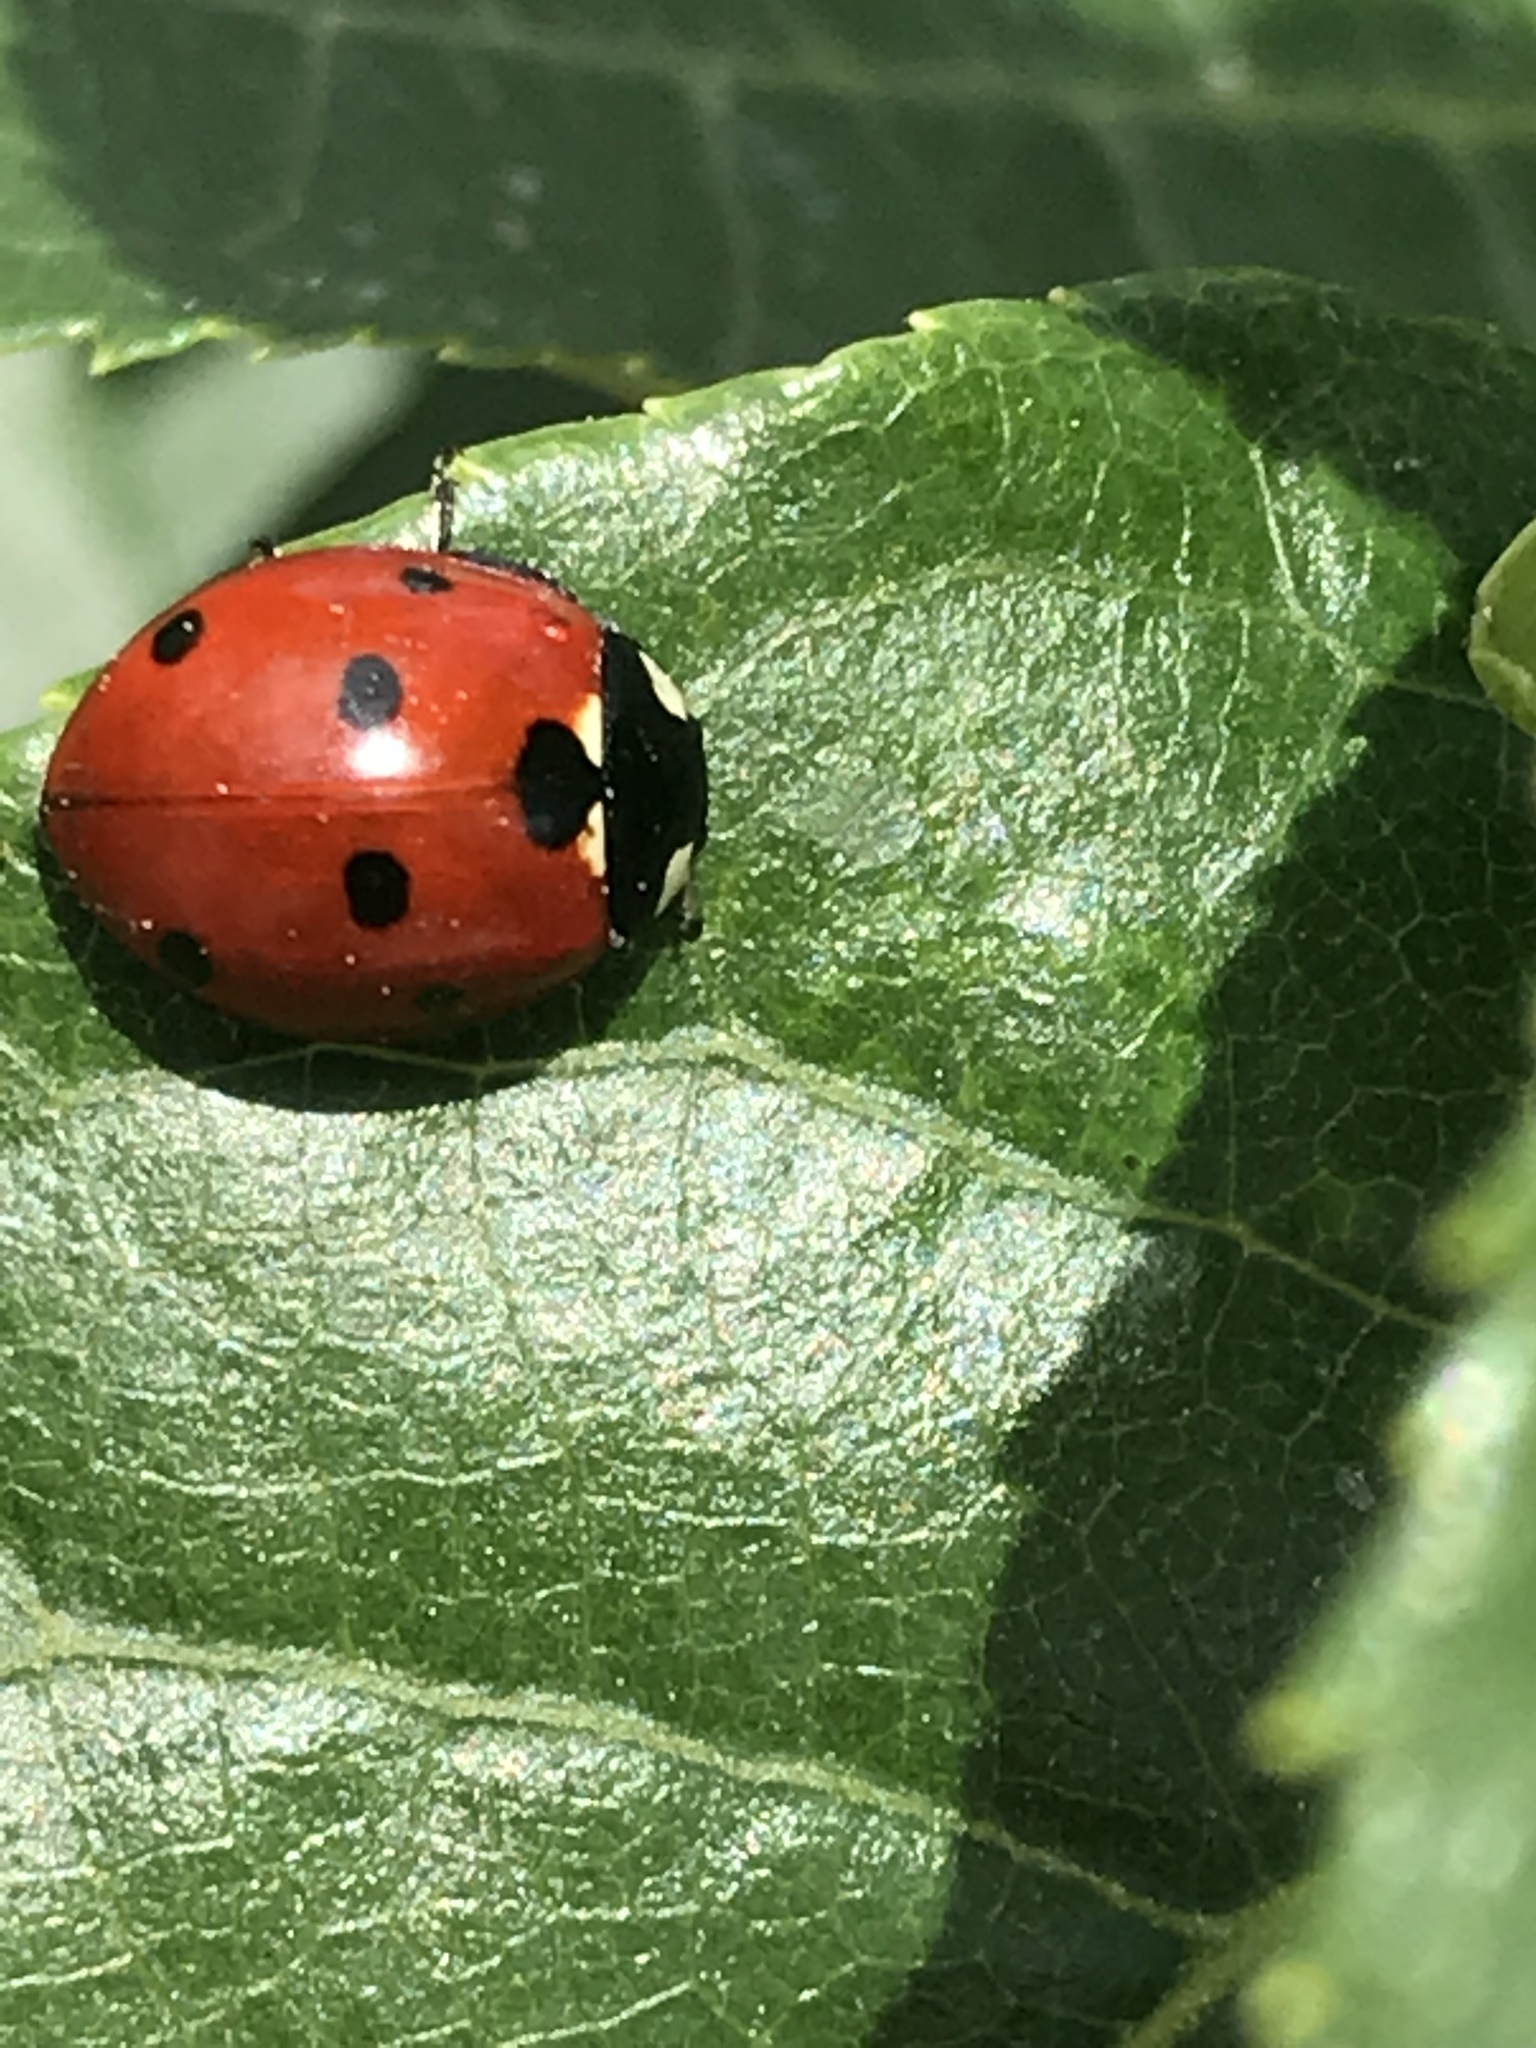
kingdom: Animalia
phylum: Arthropoda
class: Insecta
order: Coleoptera
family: Coccinellidae
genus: Coccinella
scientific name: Coccinella septempunctata
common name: Sevenspotted lady beetle
